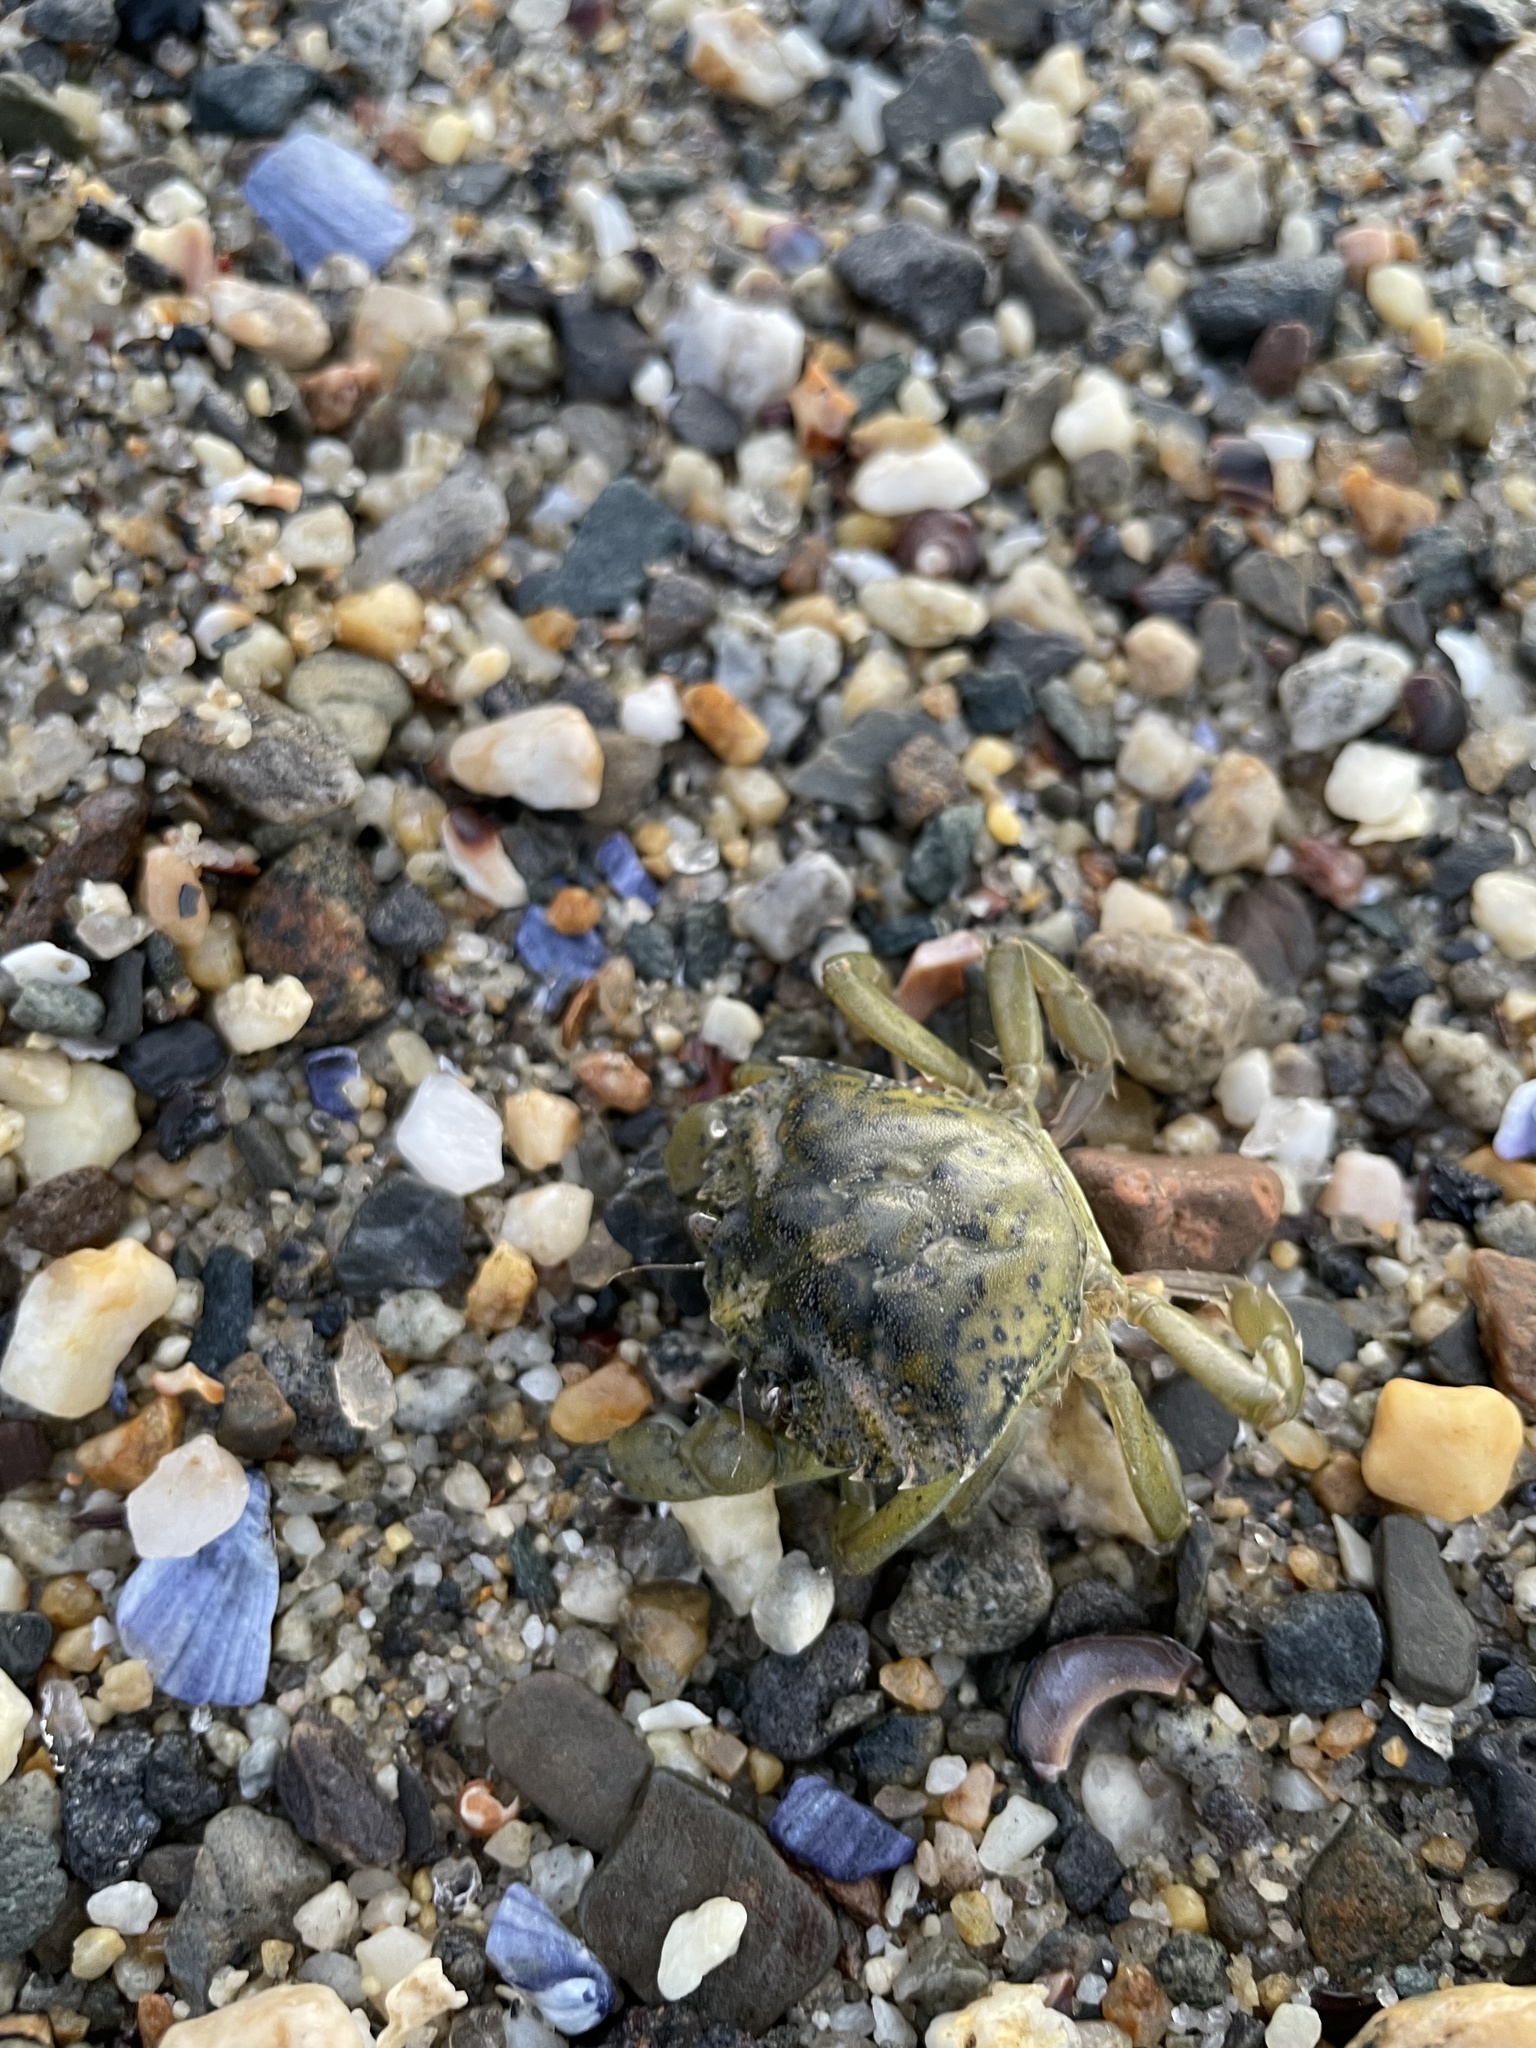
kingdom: Animalia
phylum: Arthropoda
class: Malacostraca
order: Decapoda
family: Carcinidae
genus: Carcinus
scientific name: Carcinus maenas
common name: European green crab
